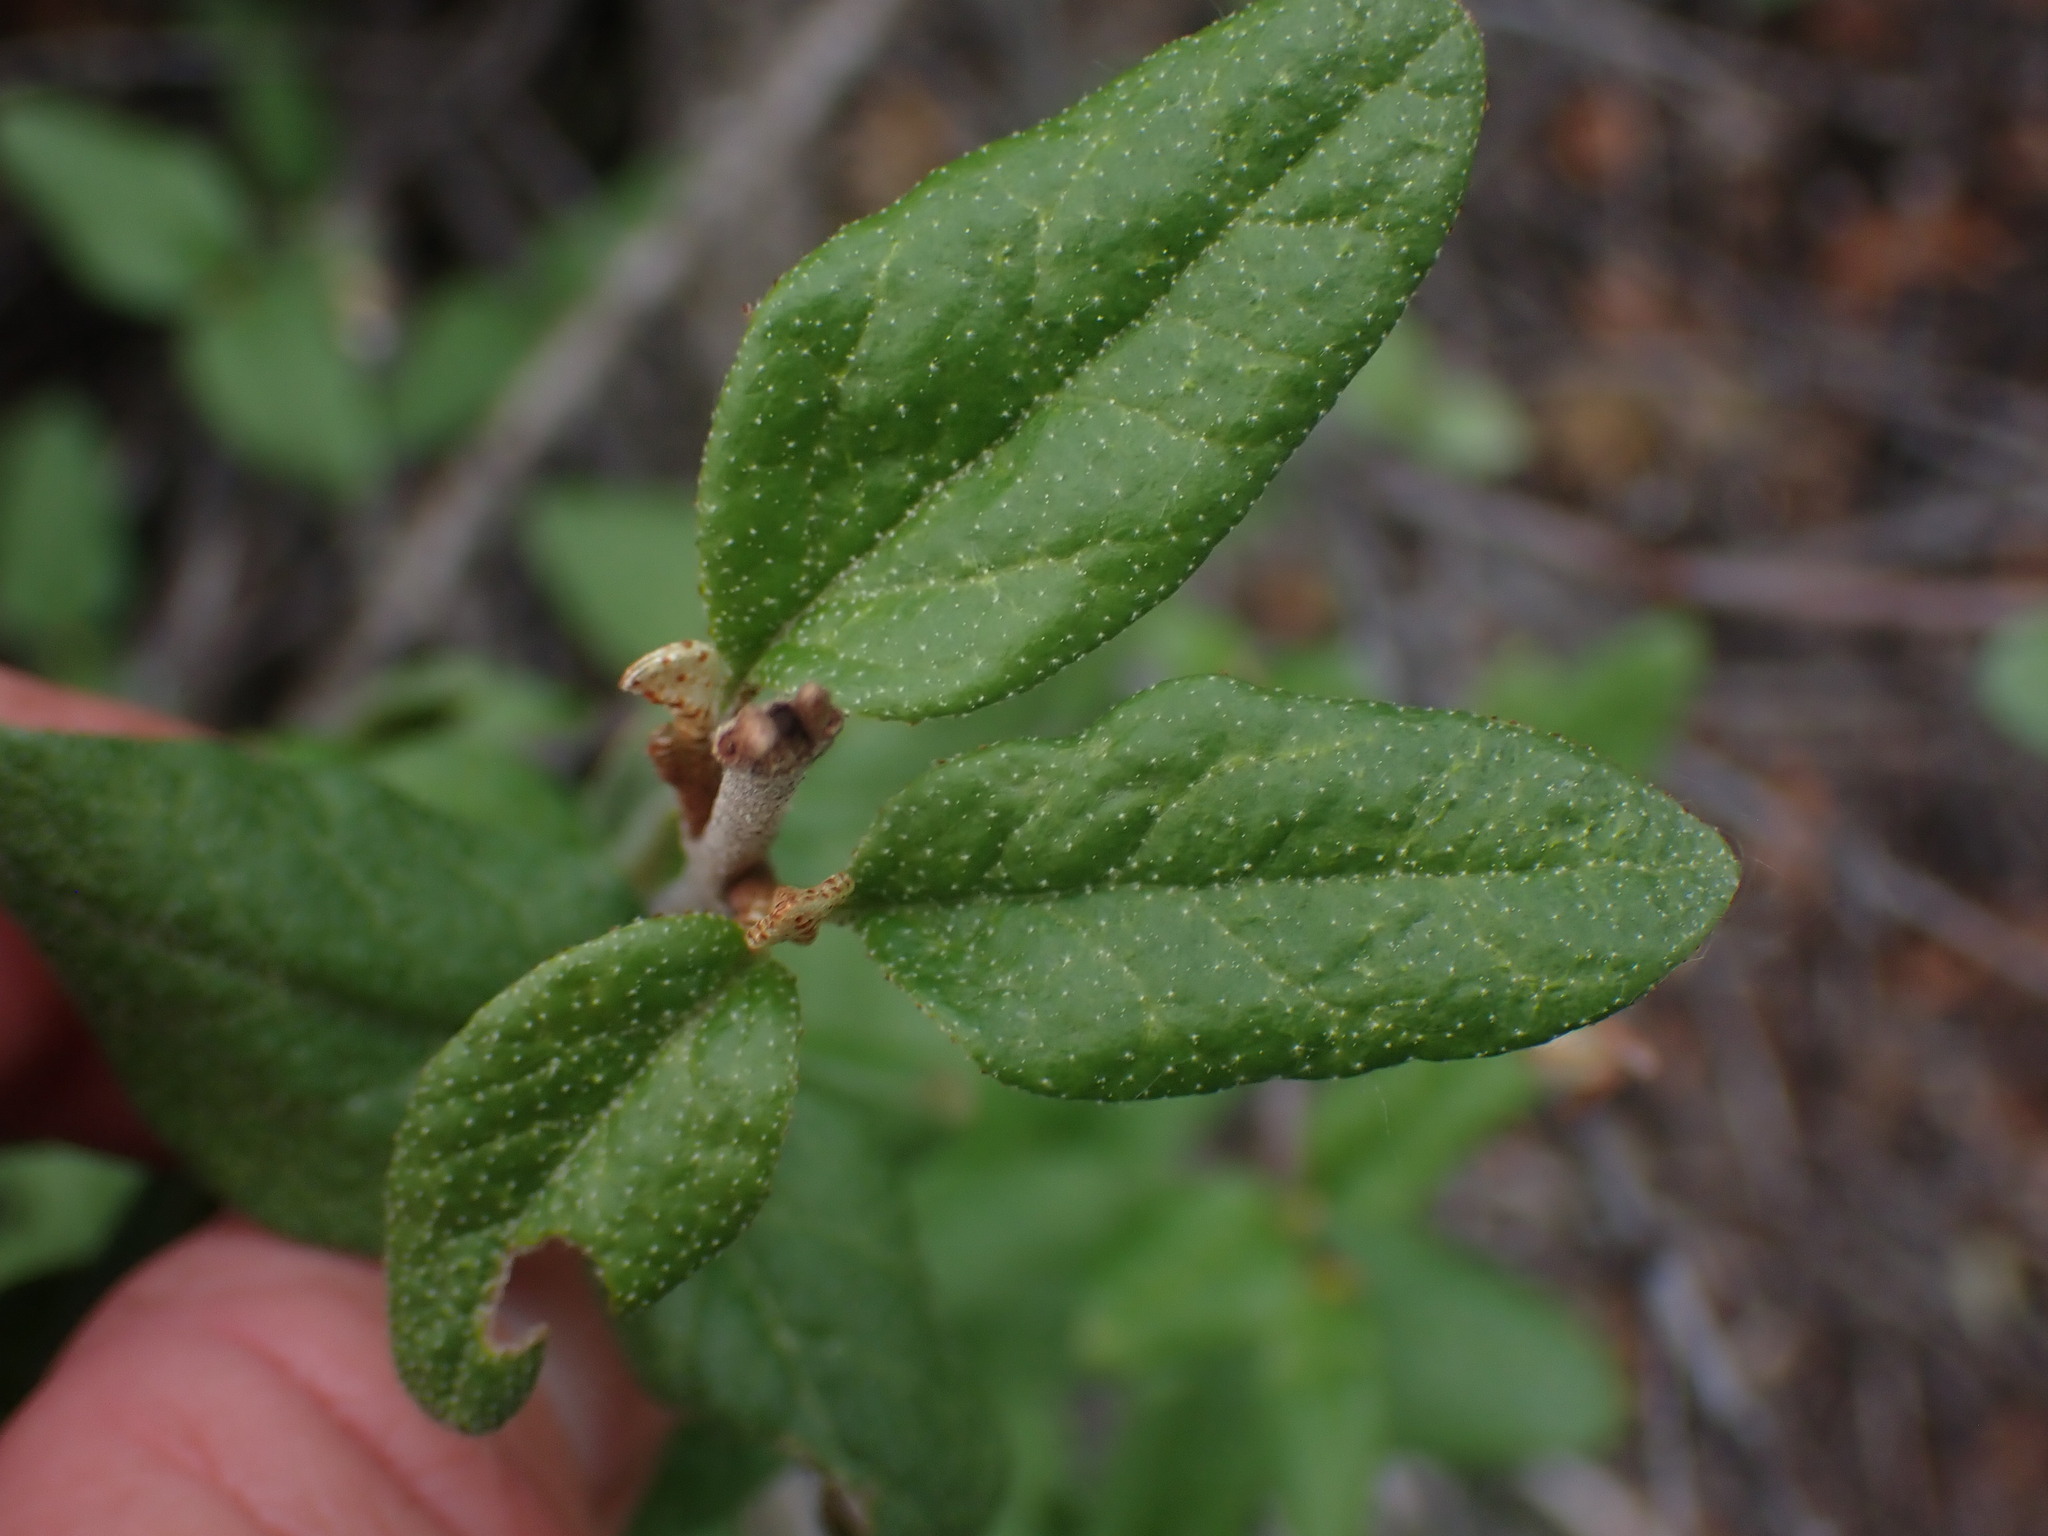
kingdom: Plantae
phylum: Tracheophyta
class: Magnoliopsida
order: Rosales
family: Elaeagnaceae
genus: Shepherdia
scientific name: Shepherdia canadensis
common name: Soapberry
